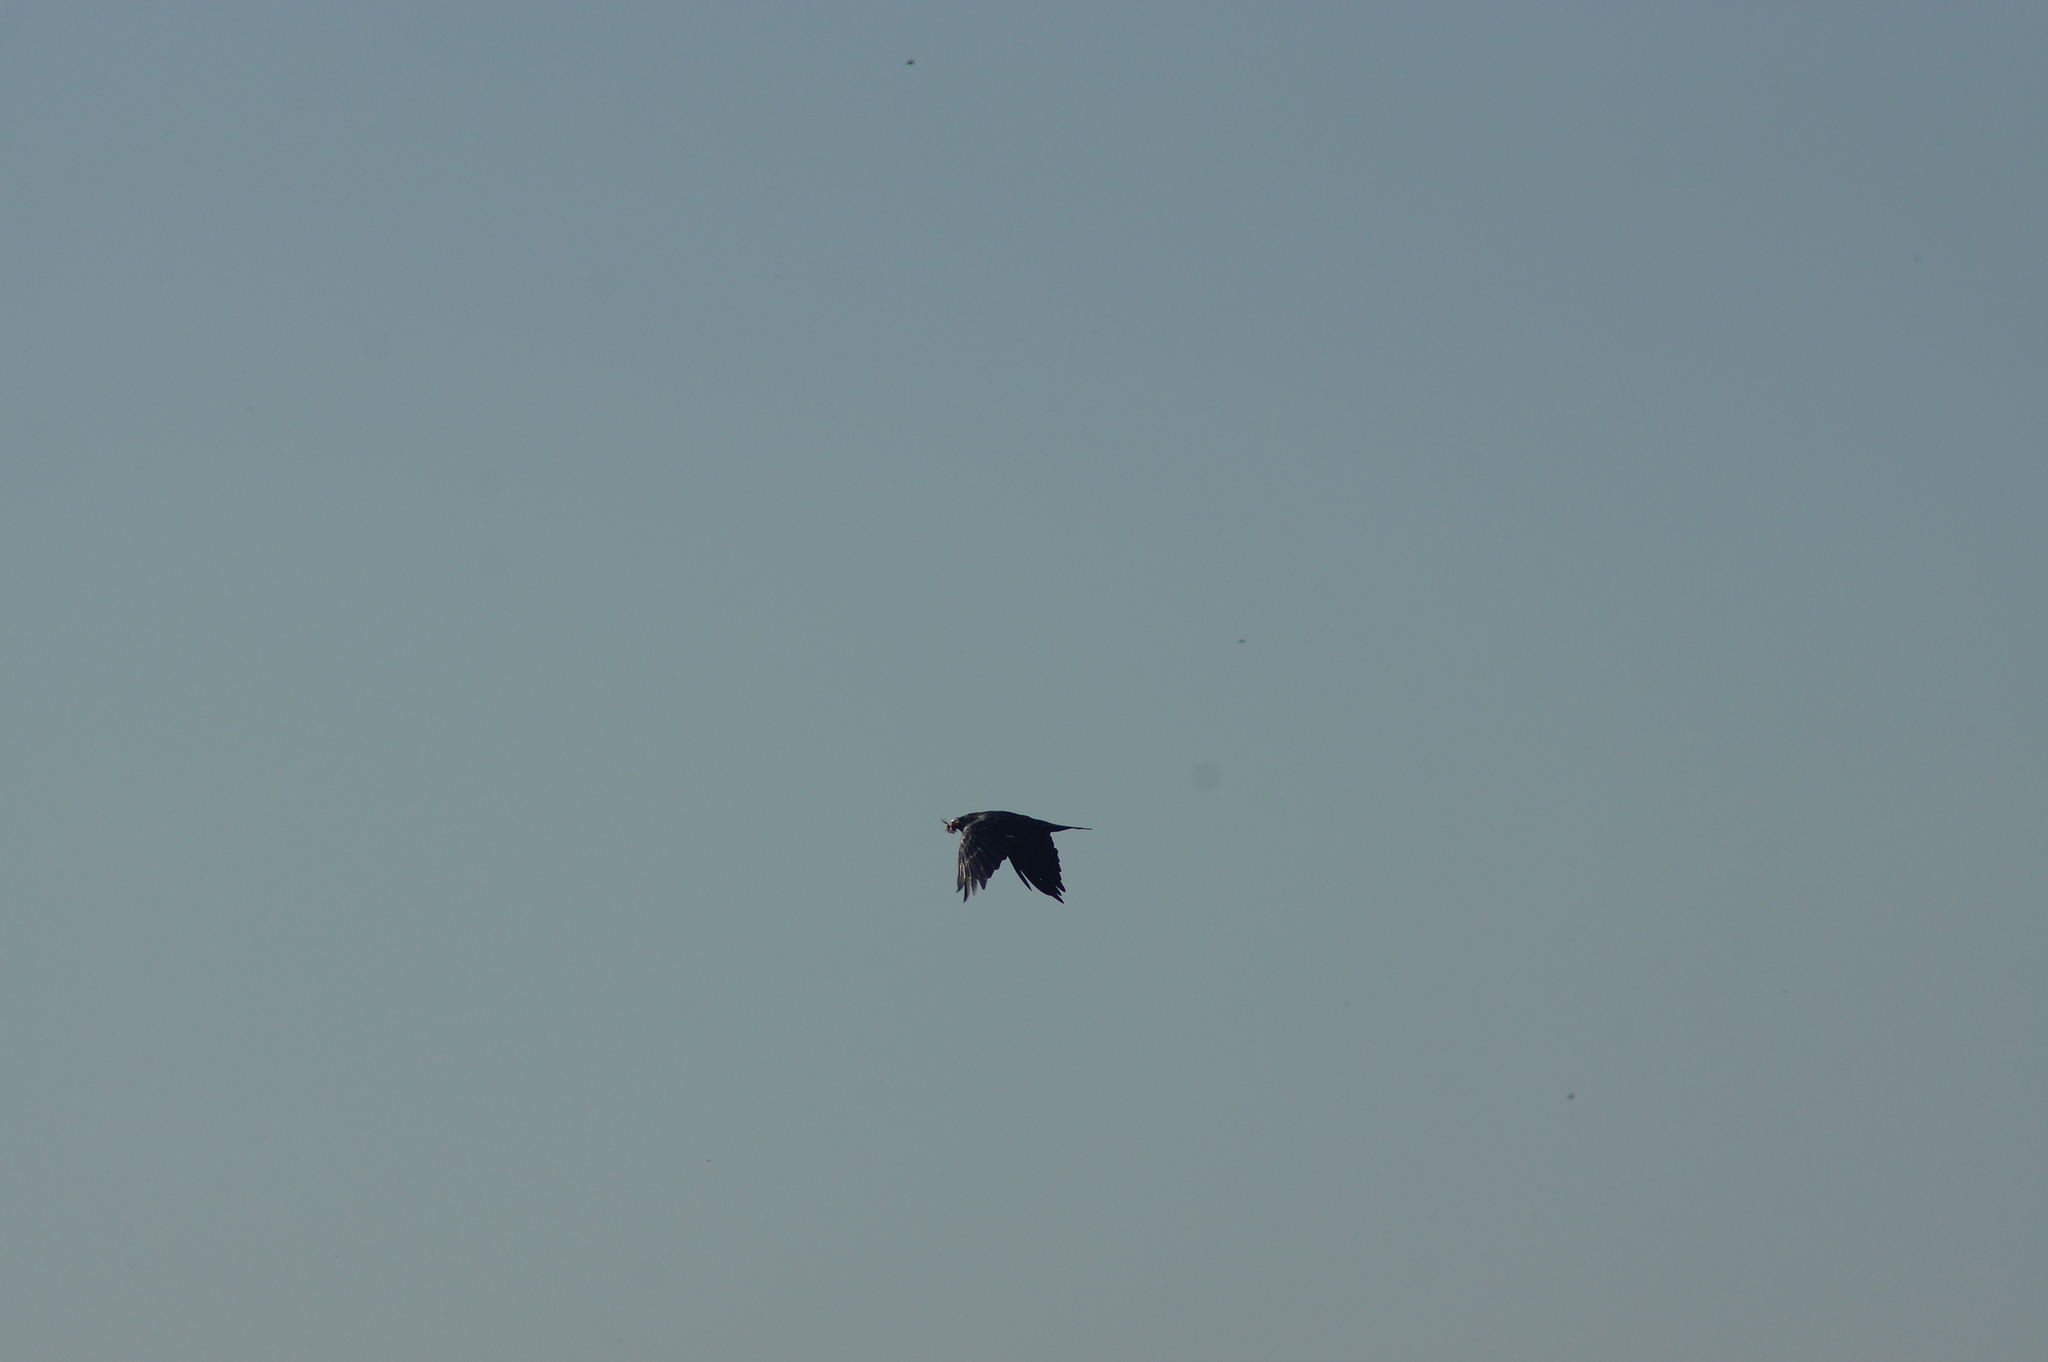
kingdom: Animalia
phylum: Chordata
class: Aves
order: Passeriformes
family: Corvidae
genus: Corvus
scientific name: Corvus corax
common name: Common raven
